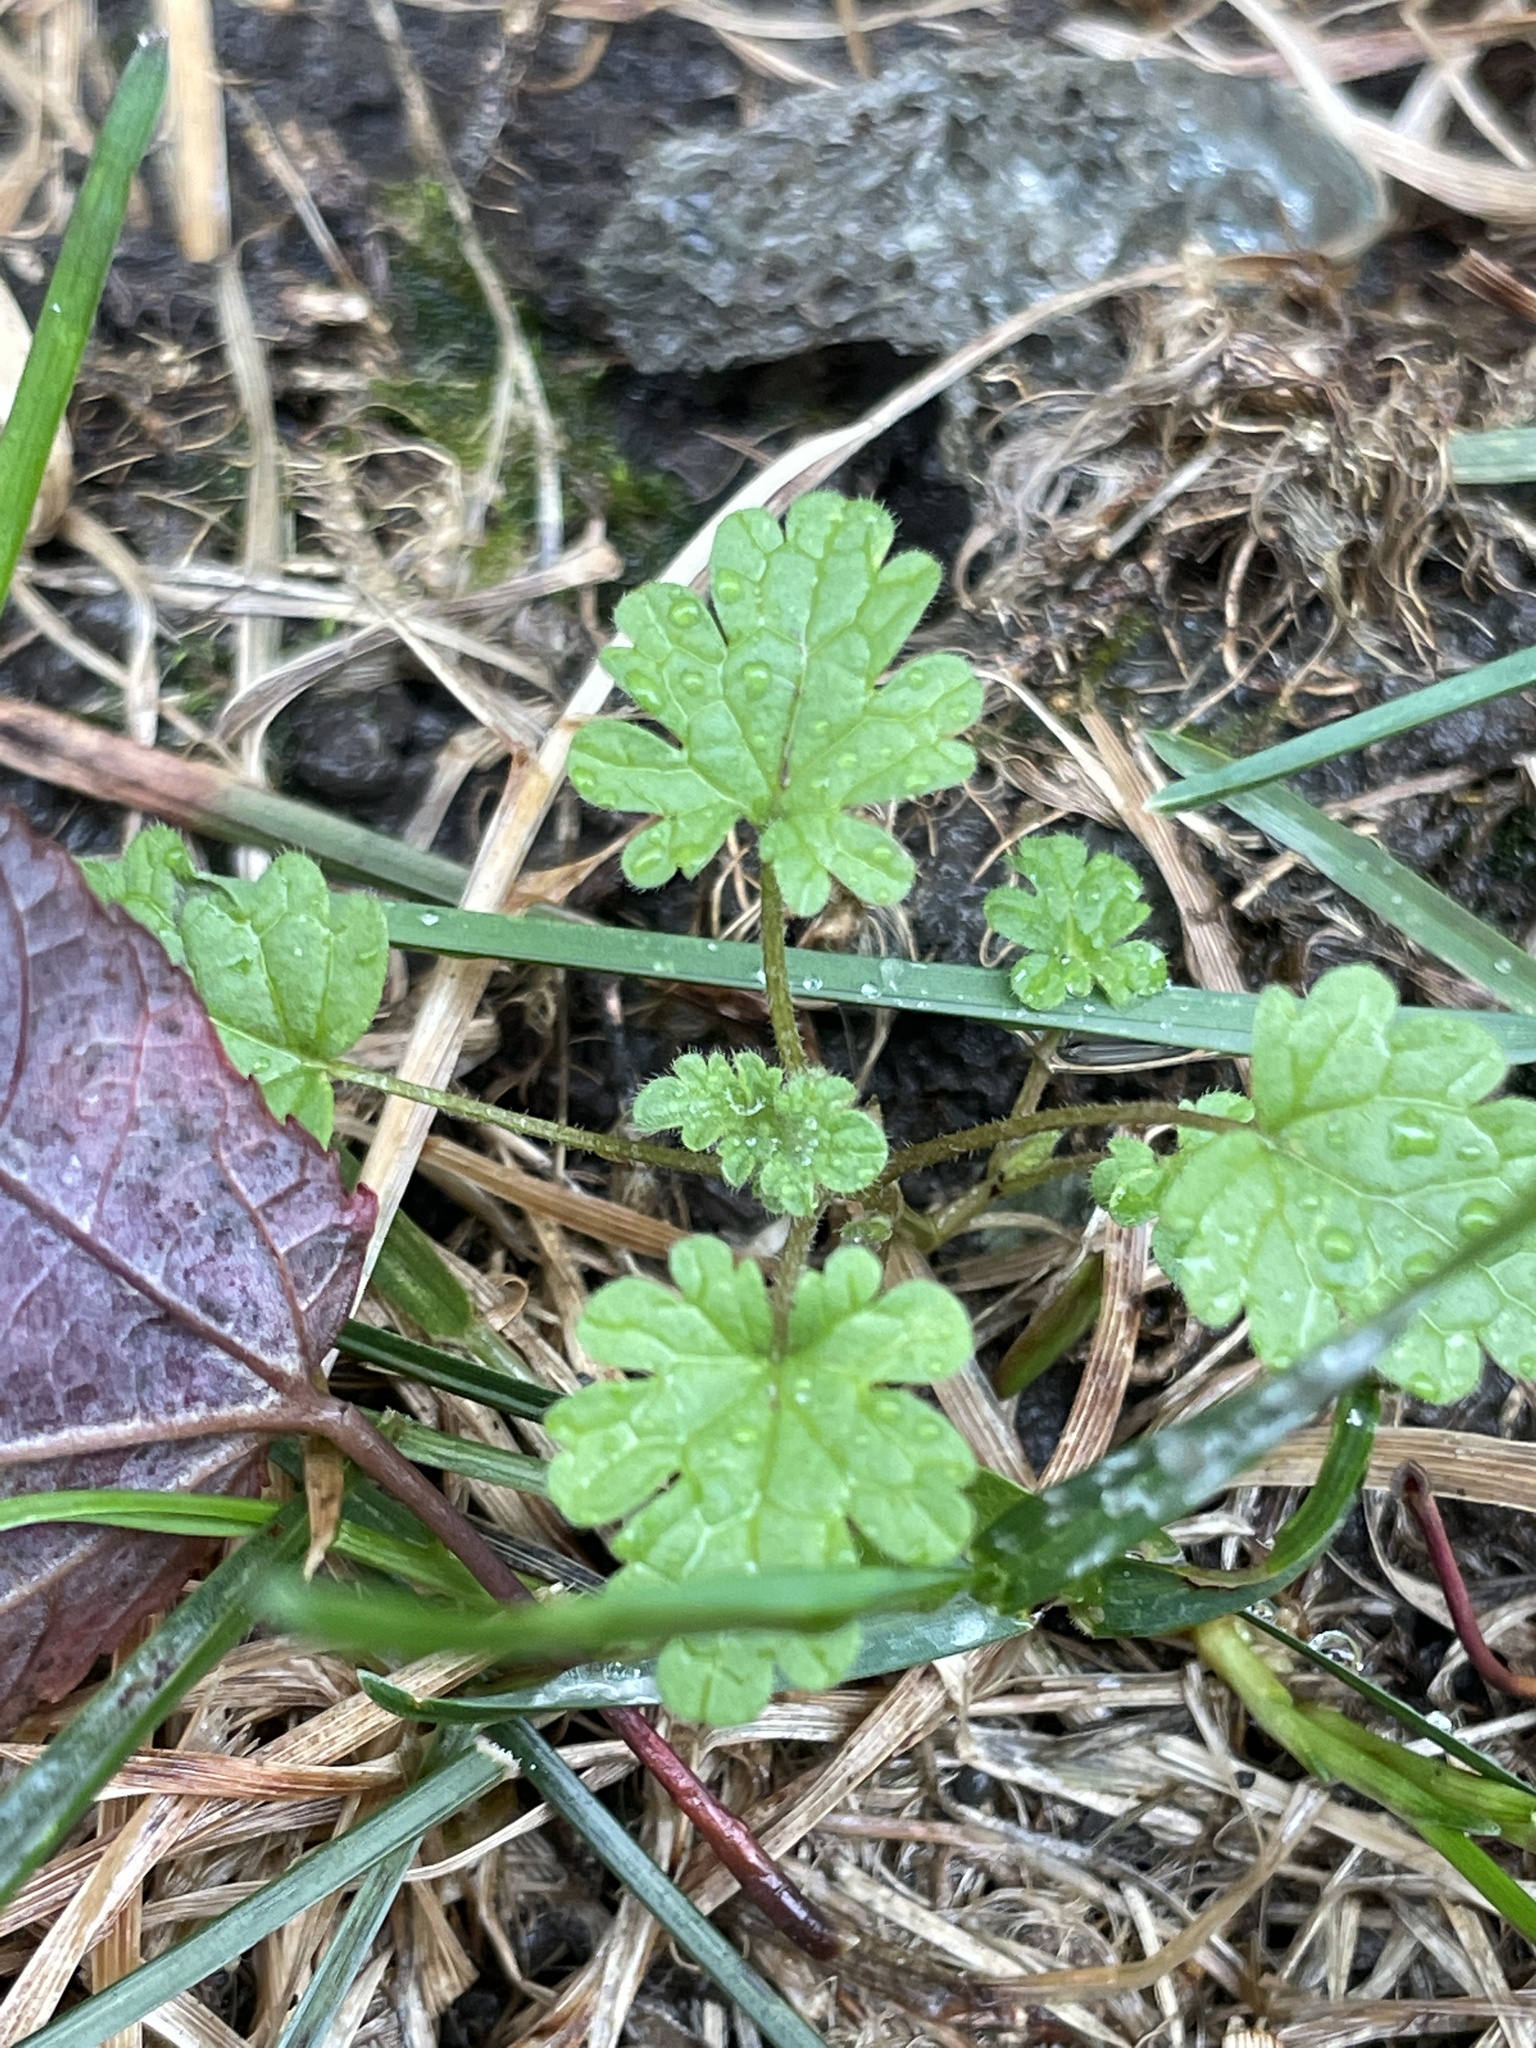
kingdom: Plantae
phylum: Tracheophyta
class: Magnoliopsida
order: Lamiales
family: Lamiaceae
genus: Lamium
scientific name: Lamium amplexicaule
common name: Henbit dead-nettle
